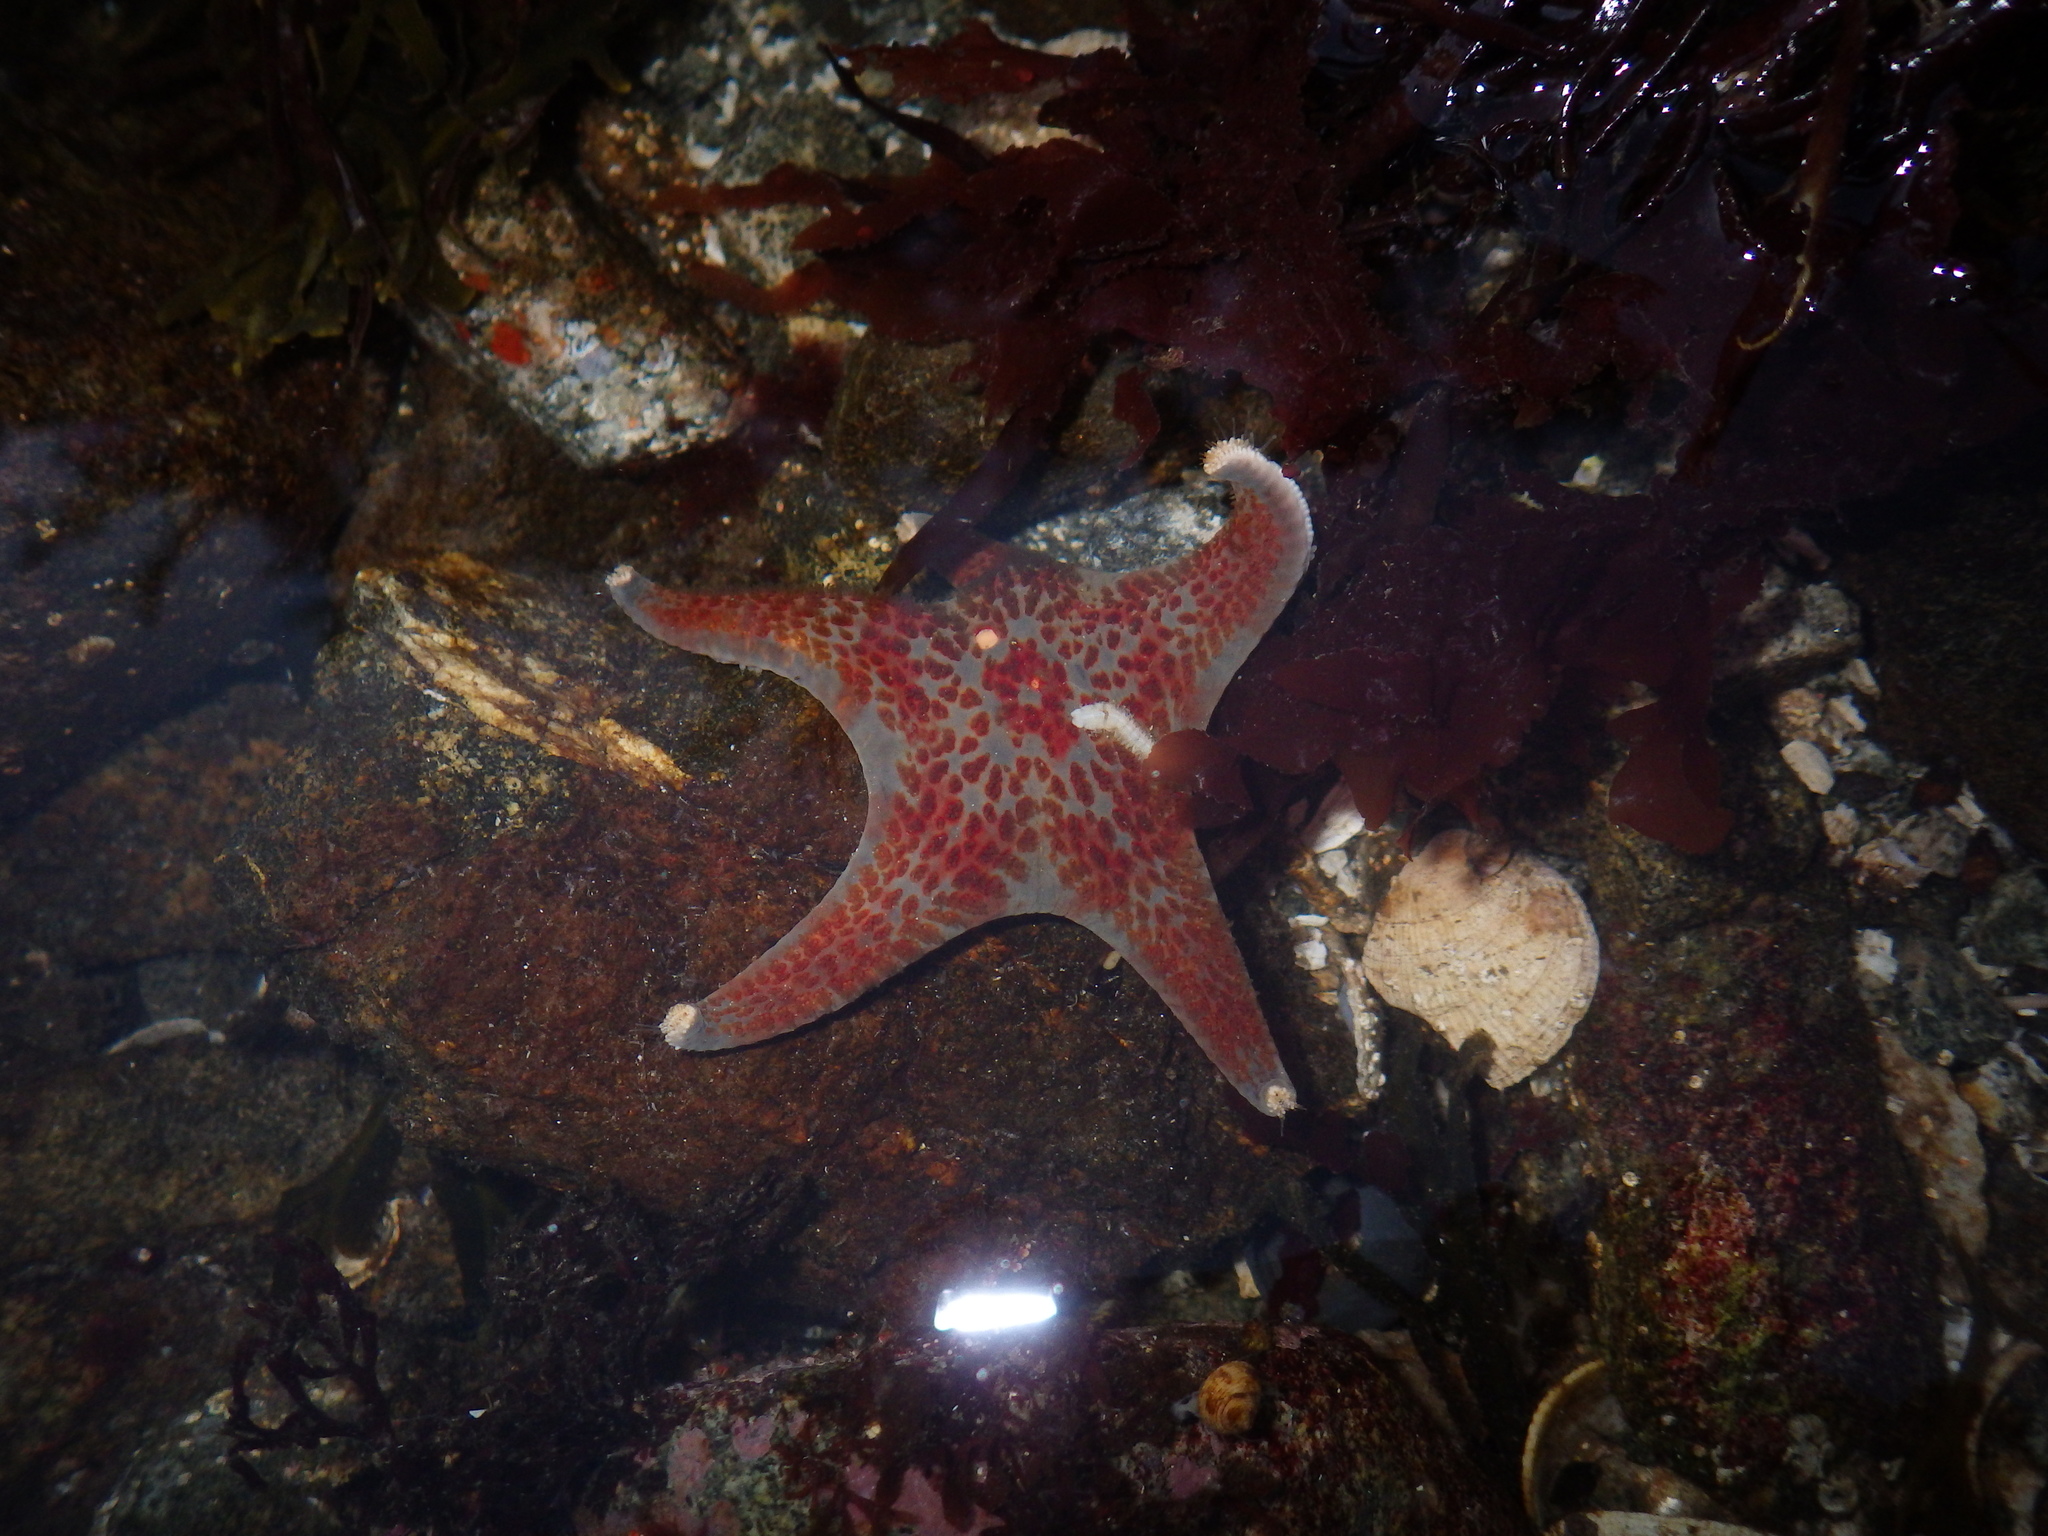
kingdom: Animalia
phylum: Echinodermata
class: Asteroidea
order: Valvatida
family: Asteropseidae
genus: Dermasterias
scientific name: Dermasterias imbricata
